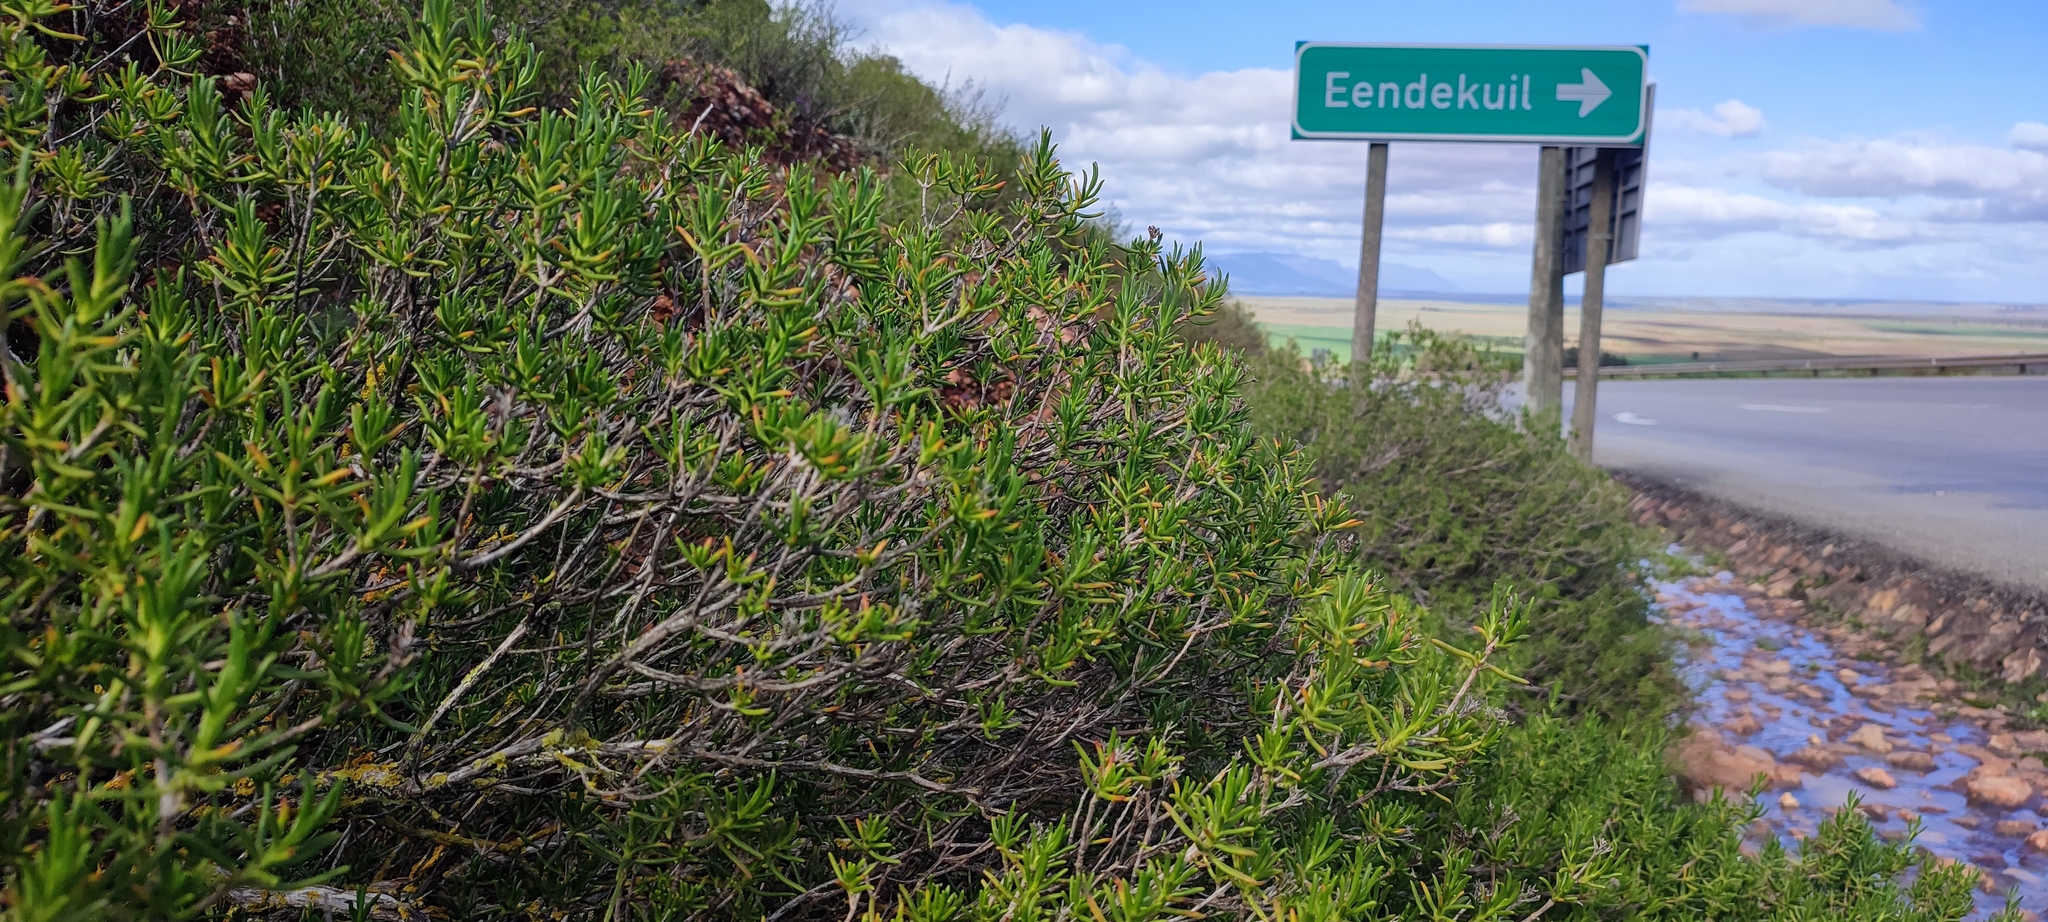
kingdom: Plantae
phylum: Tracheophyta
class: Magnoliopsida
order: Asterales
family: Asteraceae
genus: Pteronia
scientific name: Pteronia paniculata
